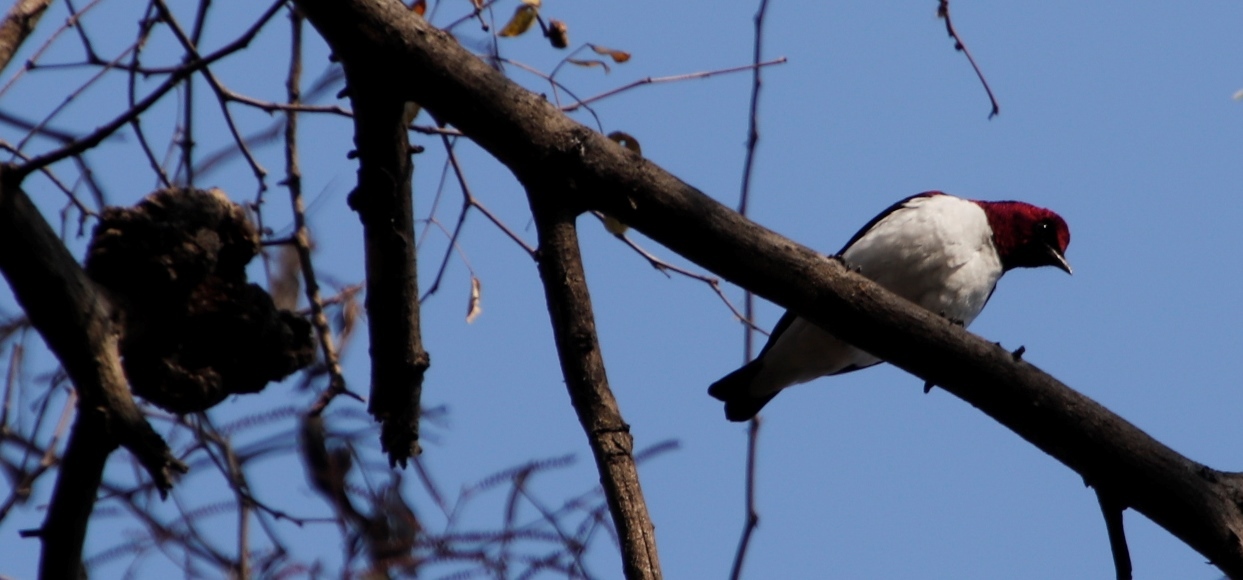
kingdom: Animalia
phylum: Chordata
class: Aves
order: Passeriformes
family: Sturnidae
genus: Cinnyricinclus
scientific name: Cinnyricinclus leucogaster
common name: Violet-backed starling
